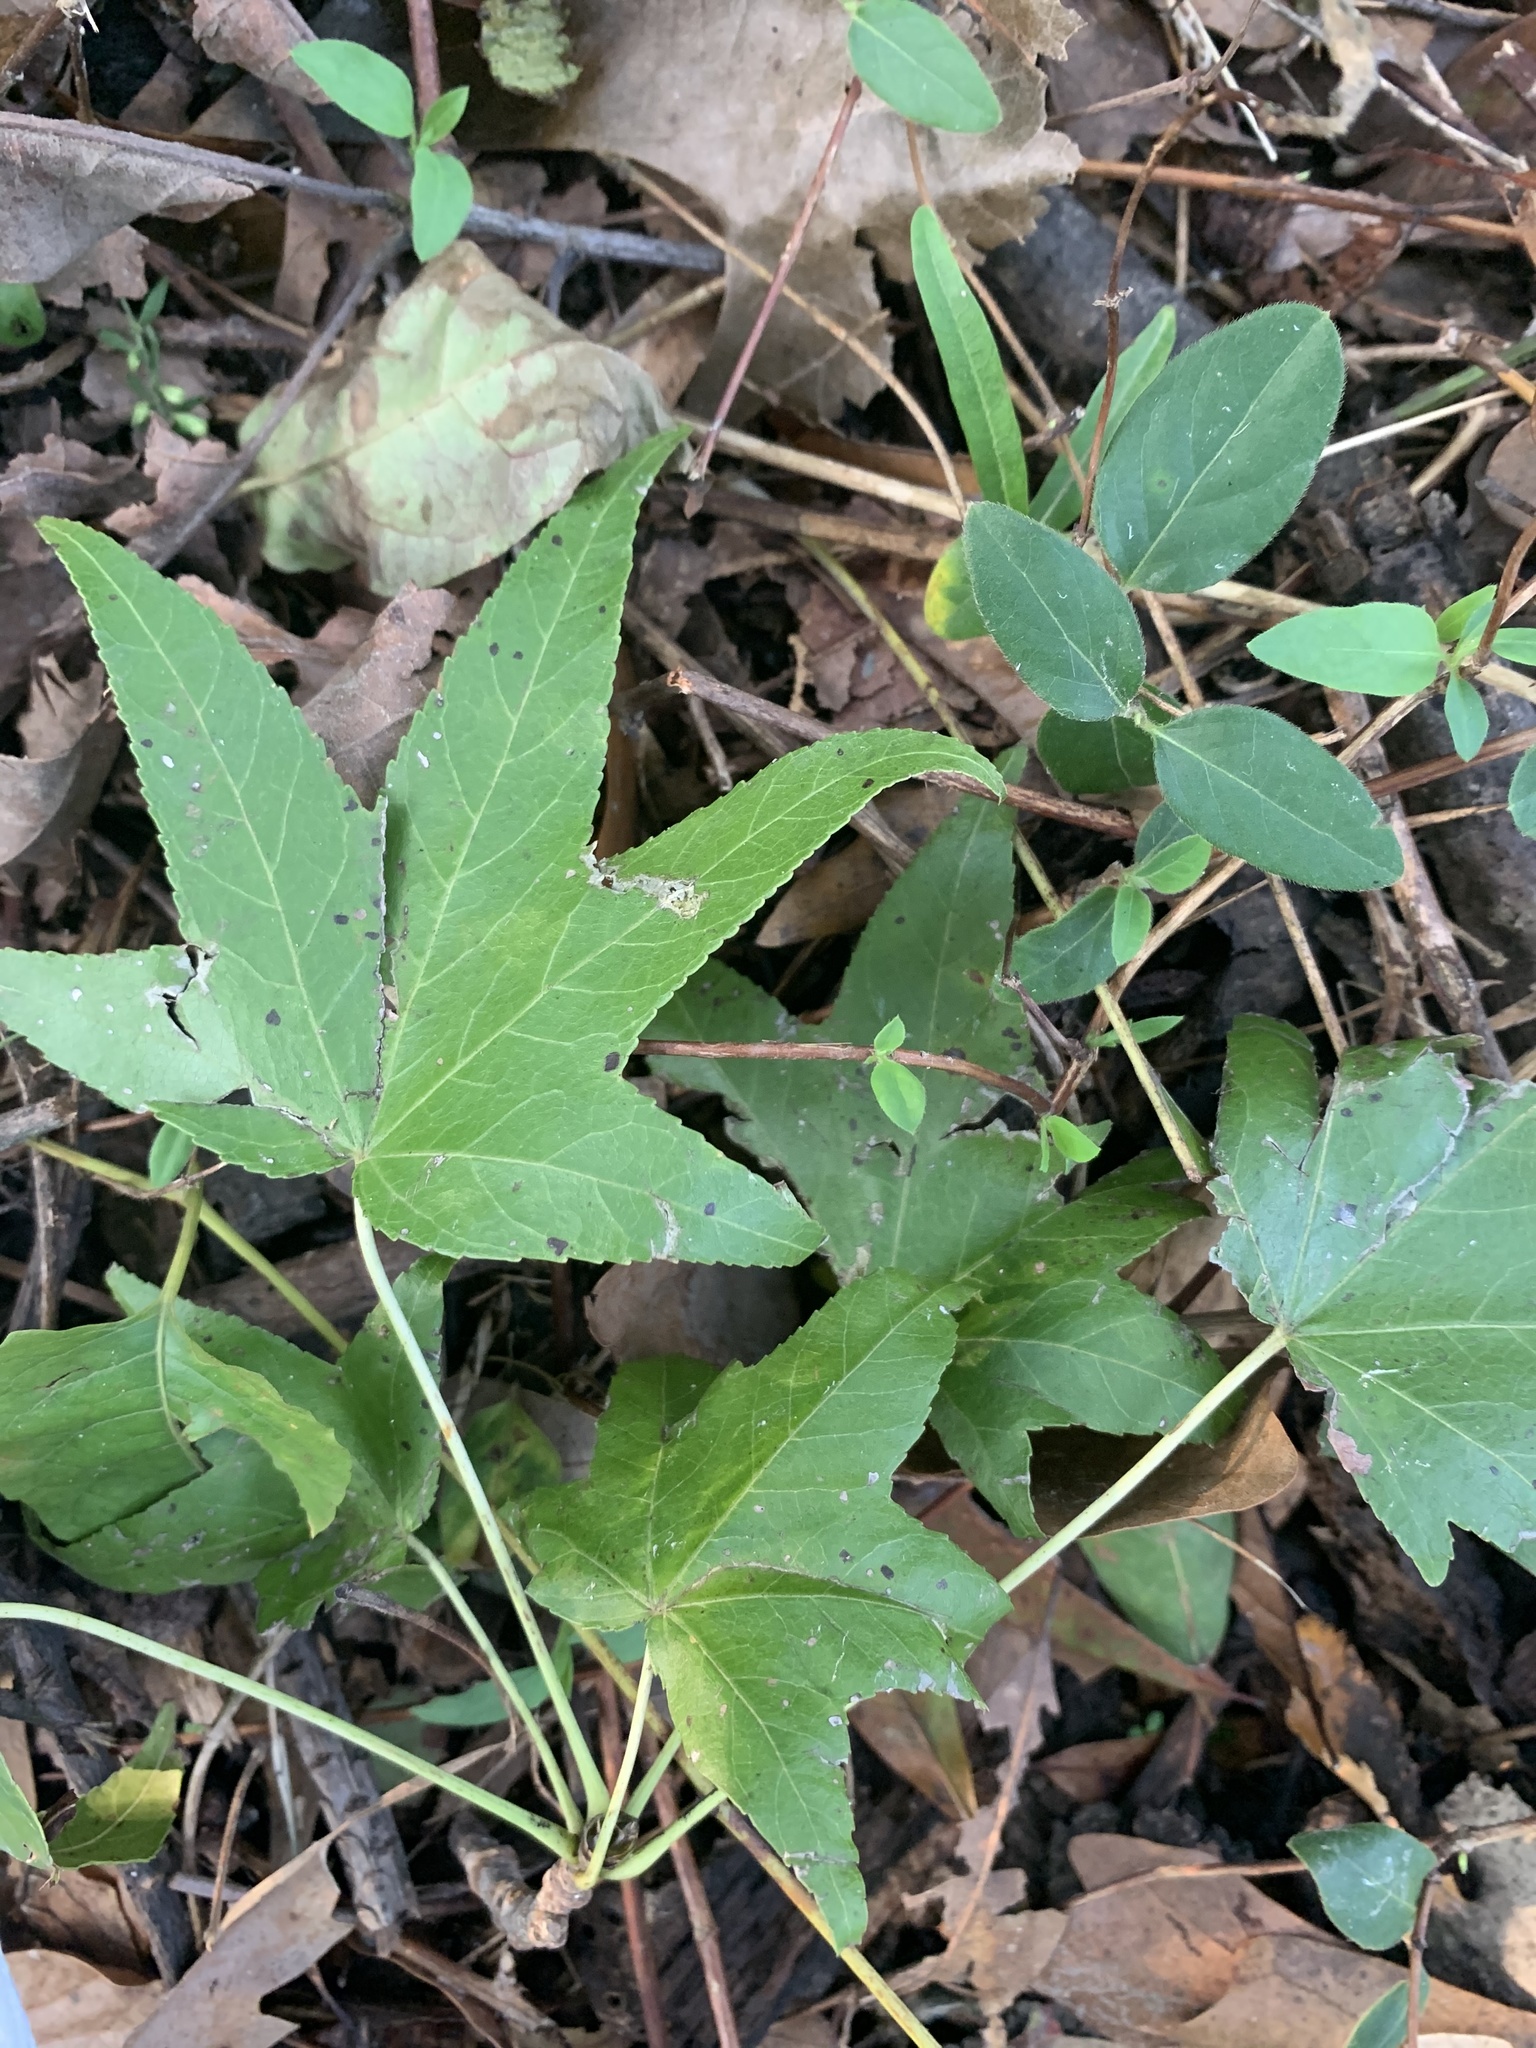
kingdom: Plantae
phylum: Tracheophyta
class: Magnoliopsida
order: Saxifragales
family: Altingiaceae
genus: Liquidambar
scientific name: Liquidambar styraciflua
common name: Sweet gum
